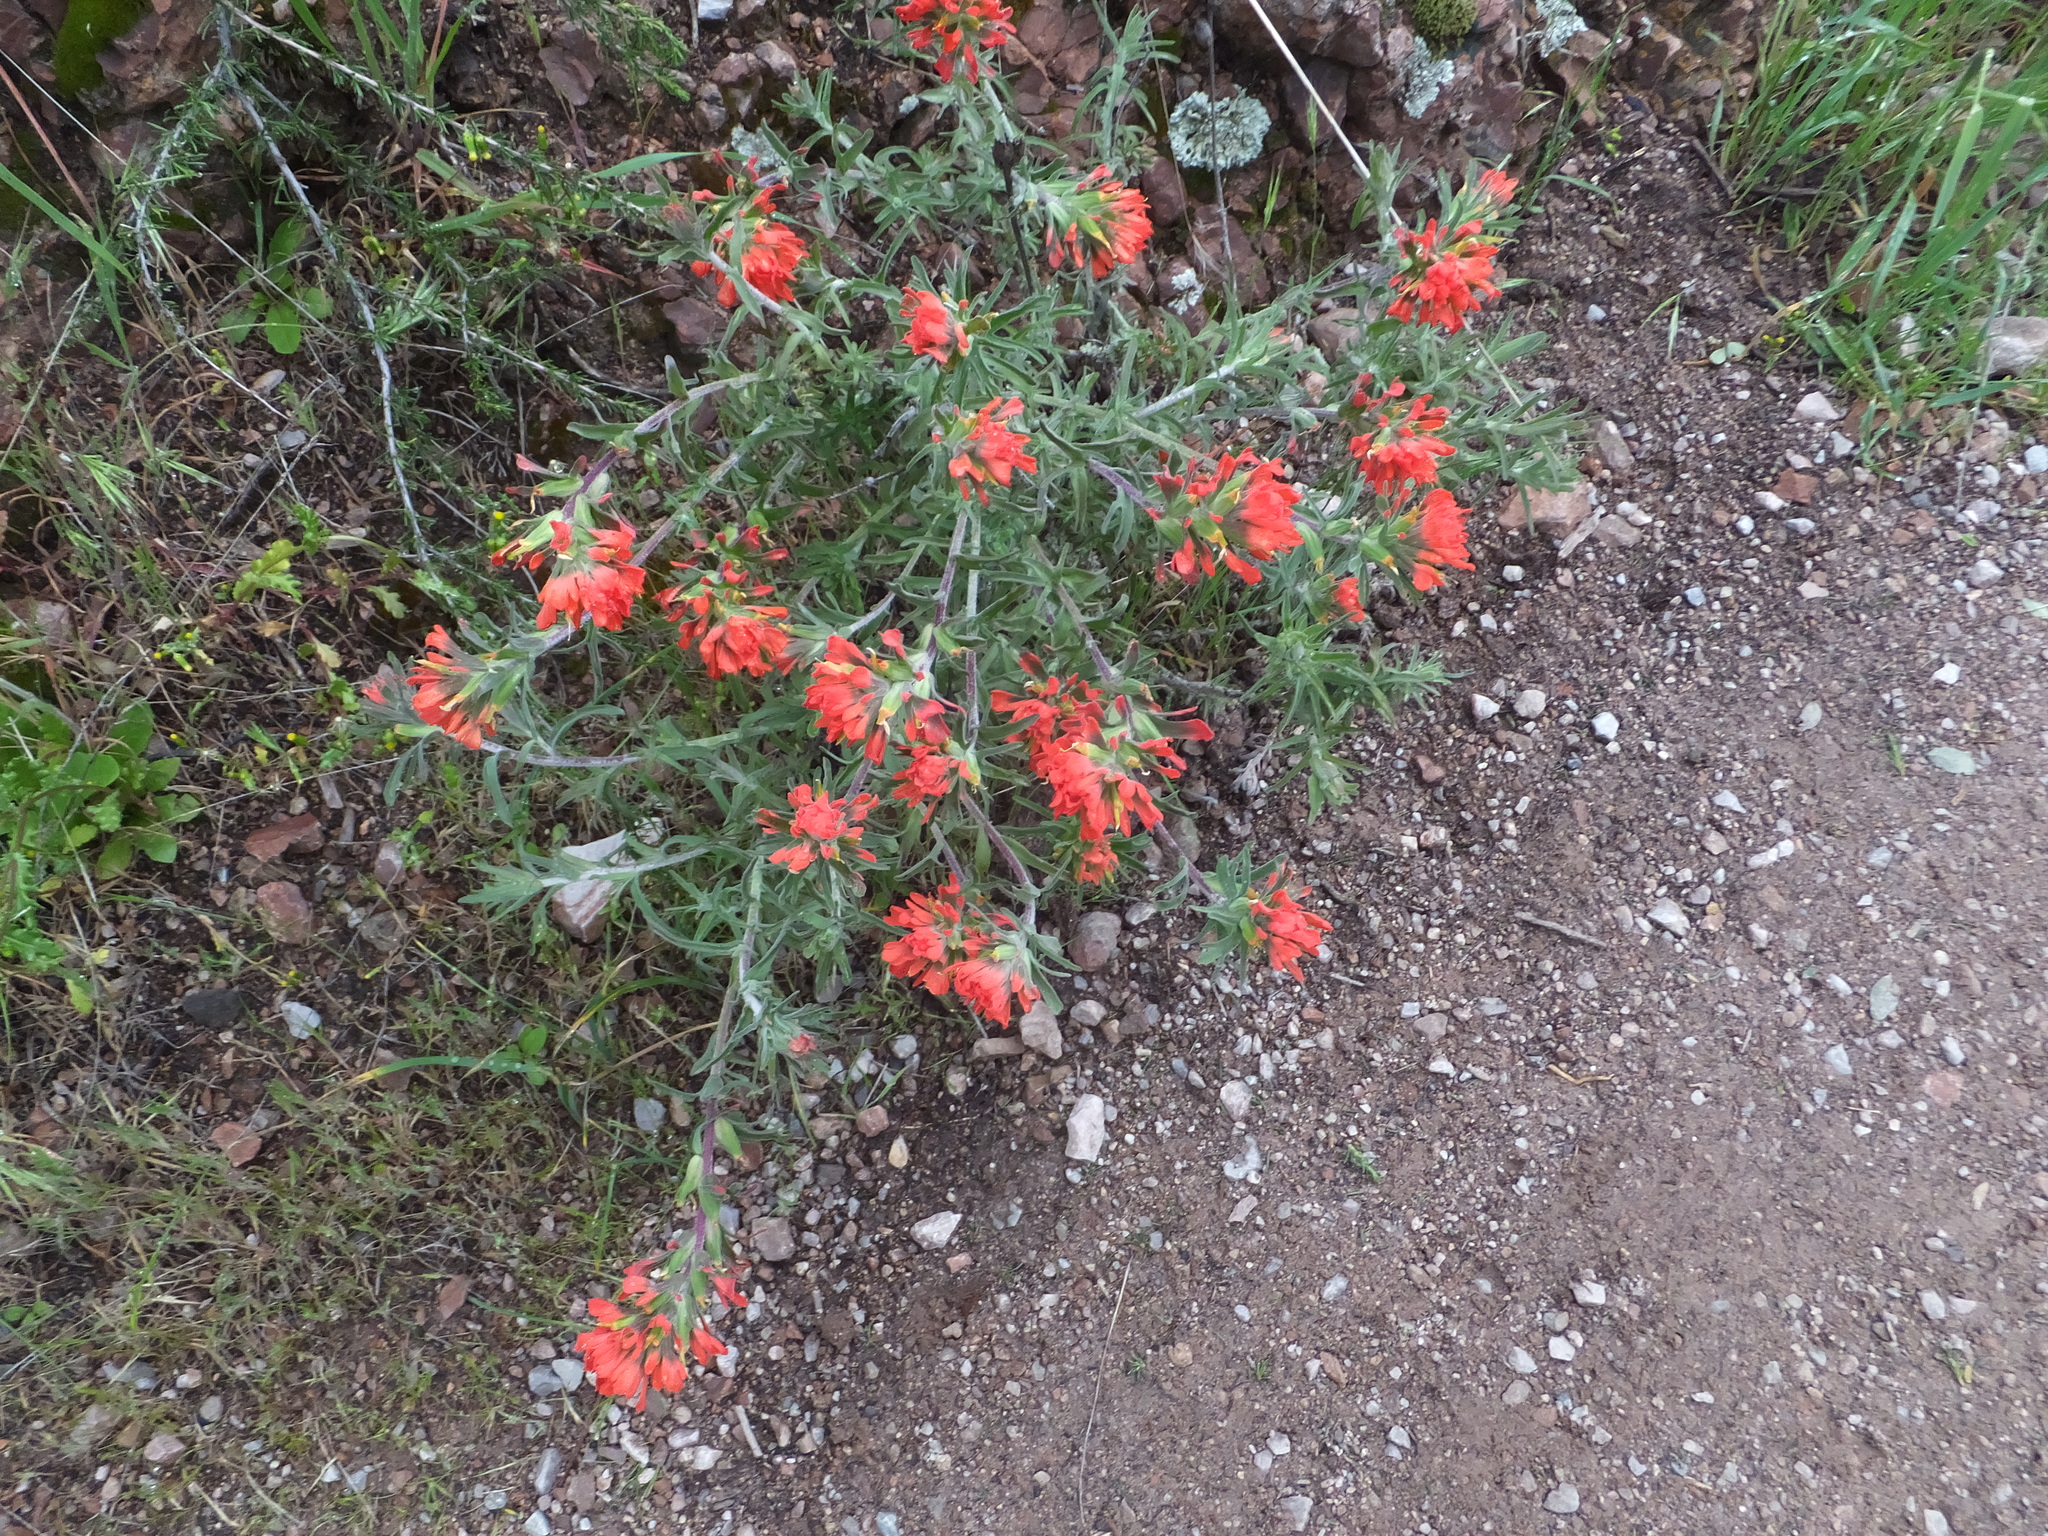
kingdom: Plantae
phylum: Tracheophyta
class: Magnoliopsida
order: Lamiales
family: Orobanchaceae
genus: Castilleja
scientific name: Castilleja foliolosa
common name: Woolly indian paintbrush
